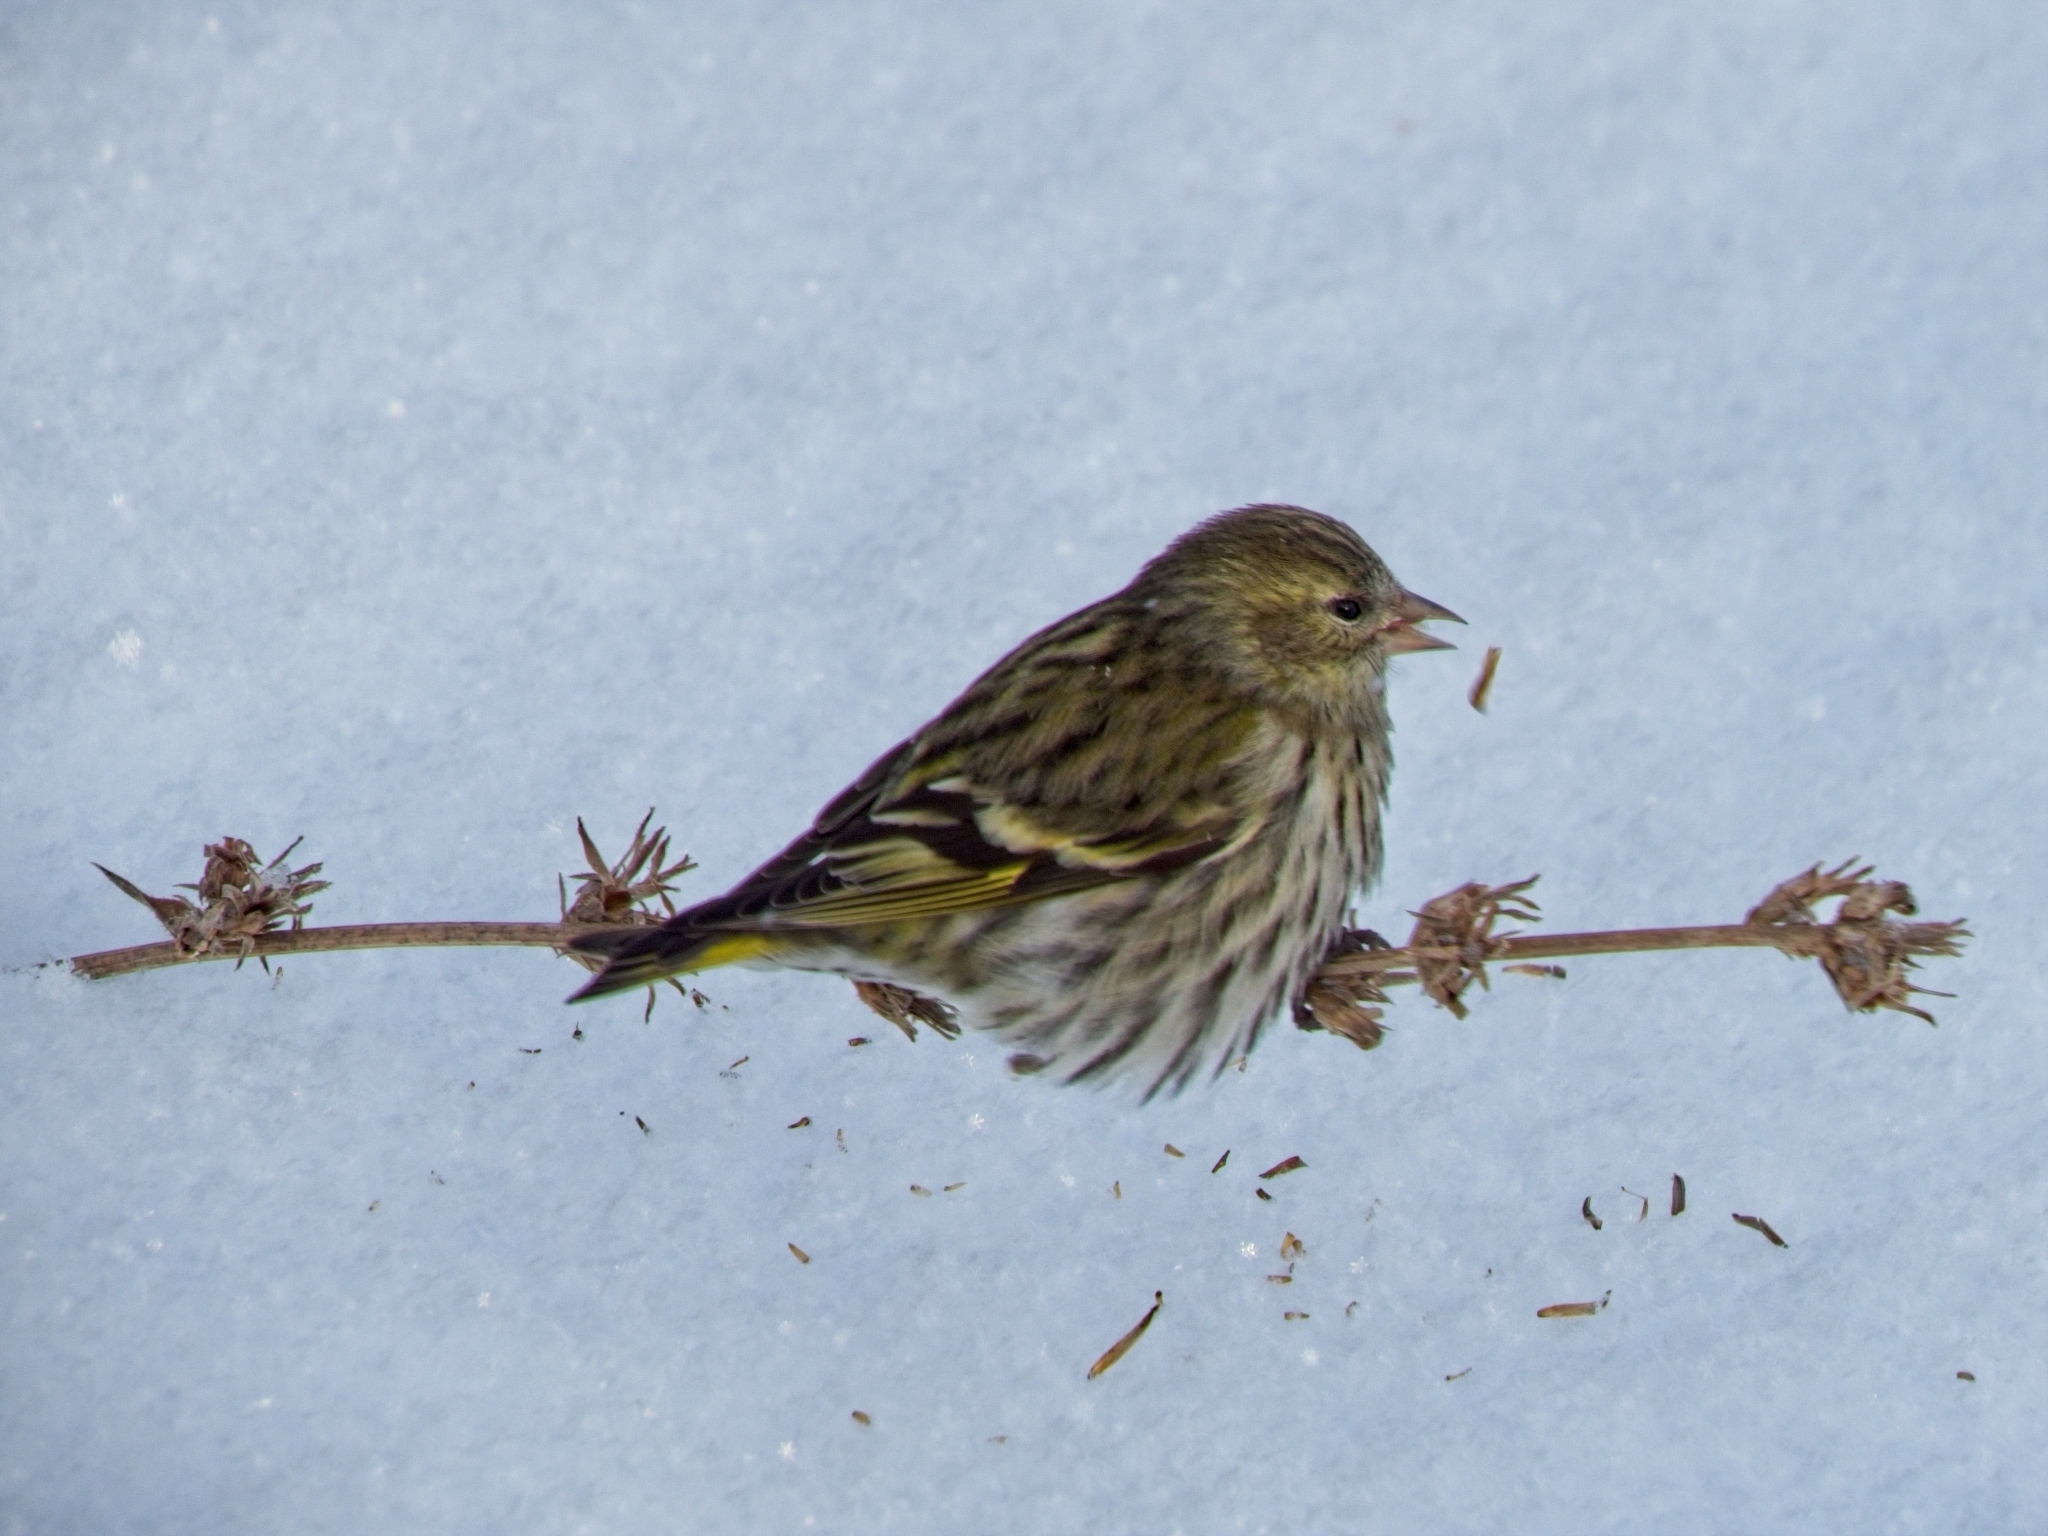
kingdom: Animalia
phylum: Chordata
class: Aves
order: Passeriformes
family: Fringillidae
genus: Spinus
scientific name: Spinus spinus
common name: Eurasian siskin
